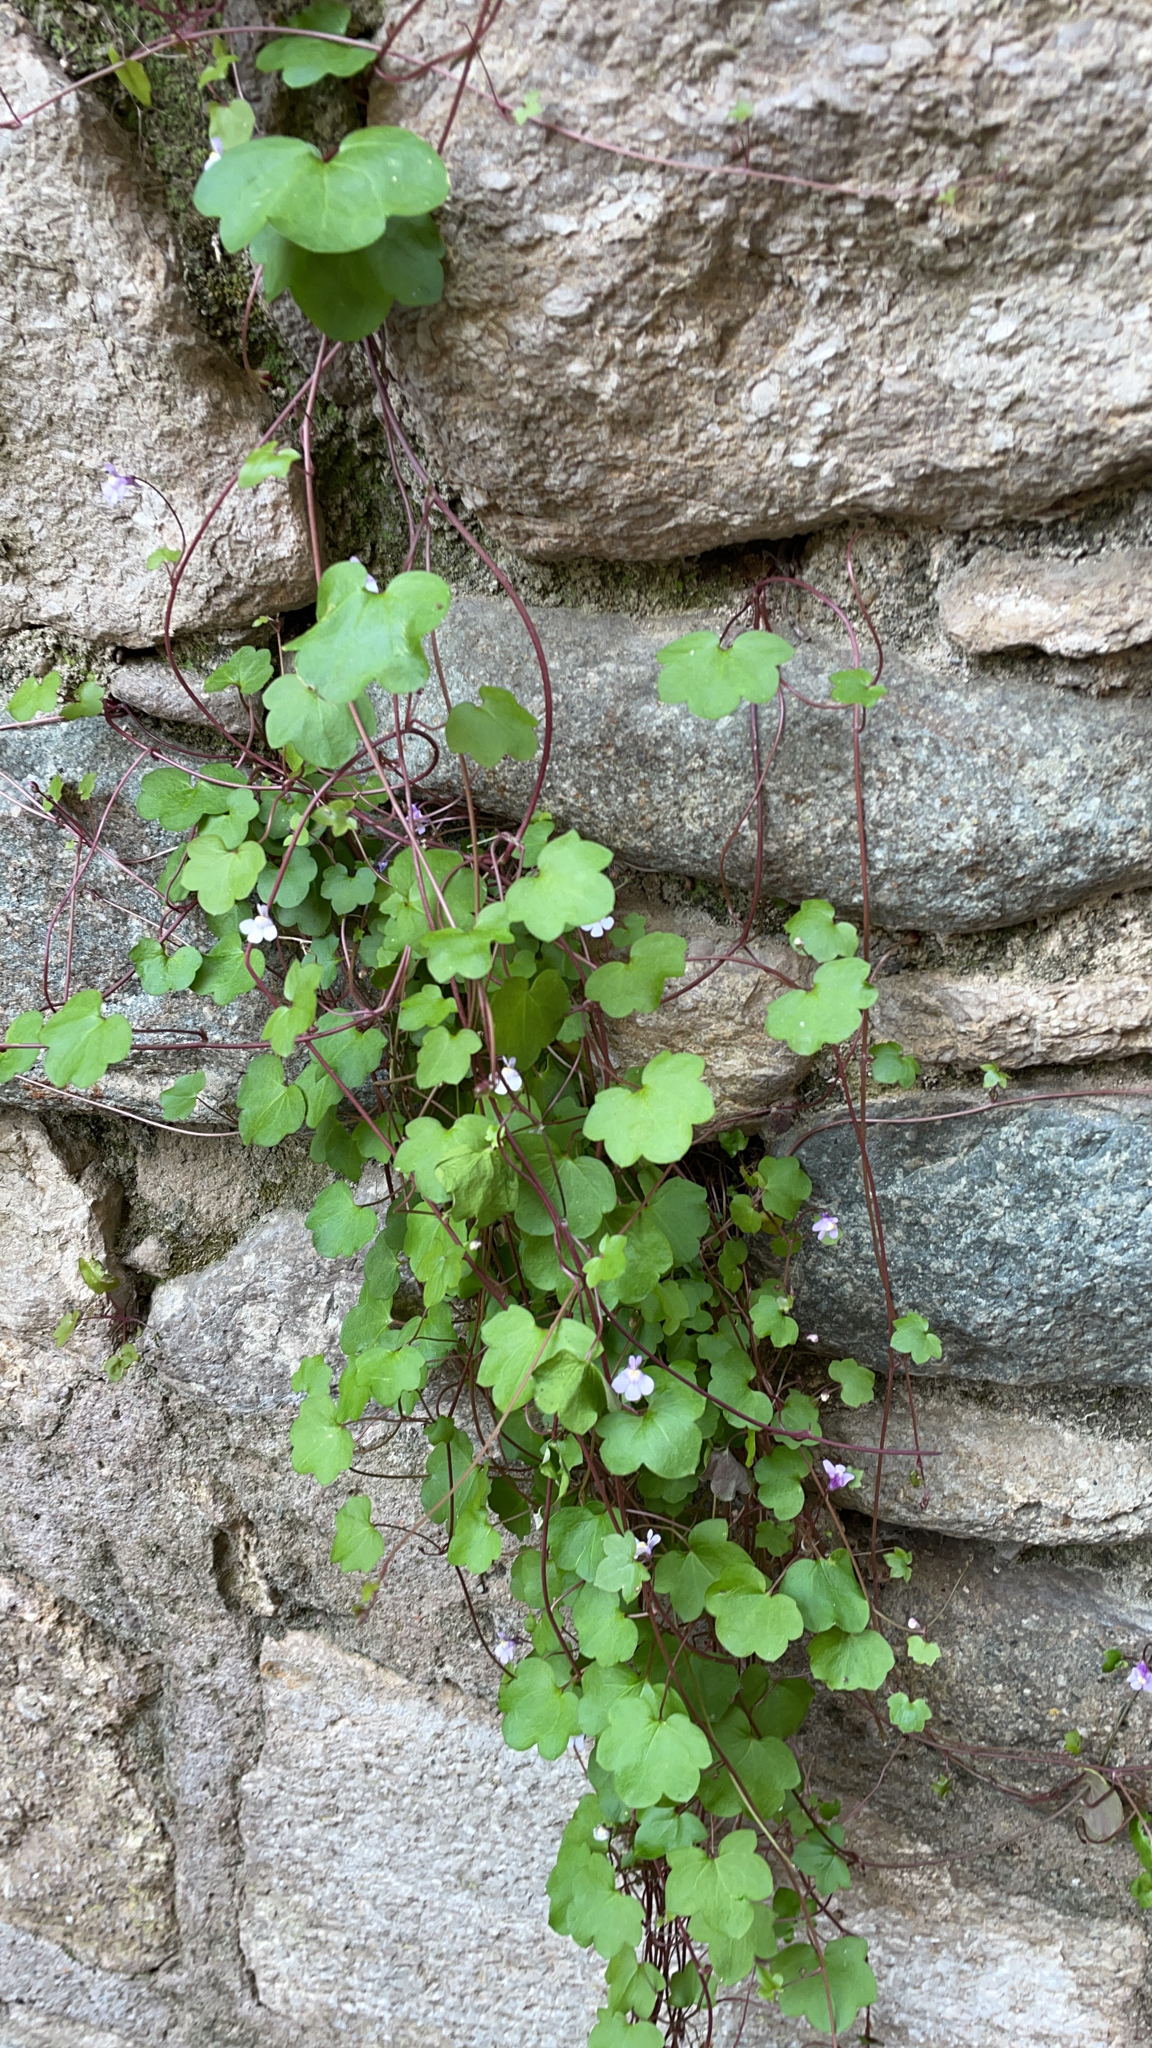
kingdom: Plantae
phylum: Tracheophyta
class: Magnoliopsida
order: Lamiales
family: Plantaginaceae
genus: Cymbalaria
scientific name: Cymbalaria muralis
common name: Ivy-leaved toadflax
